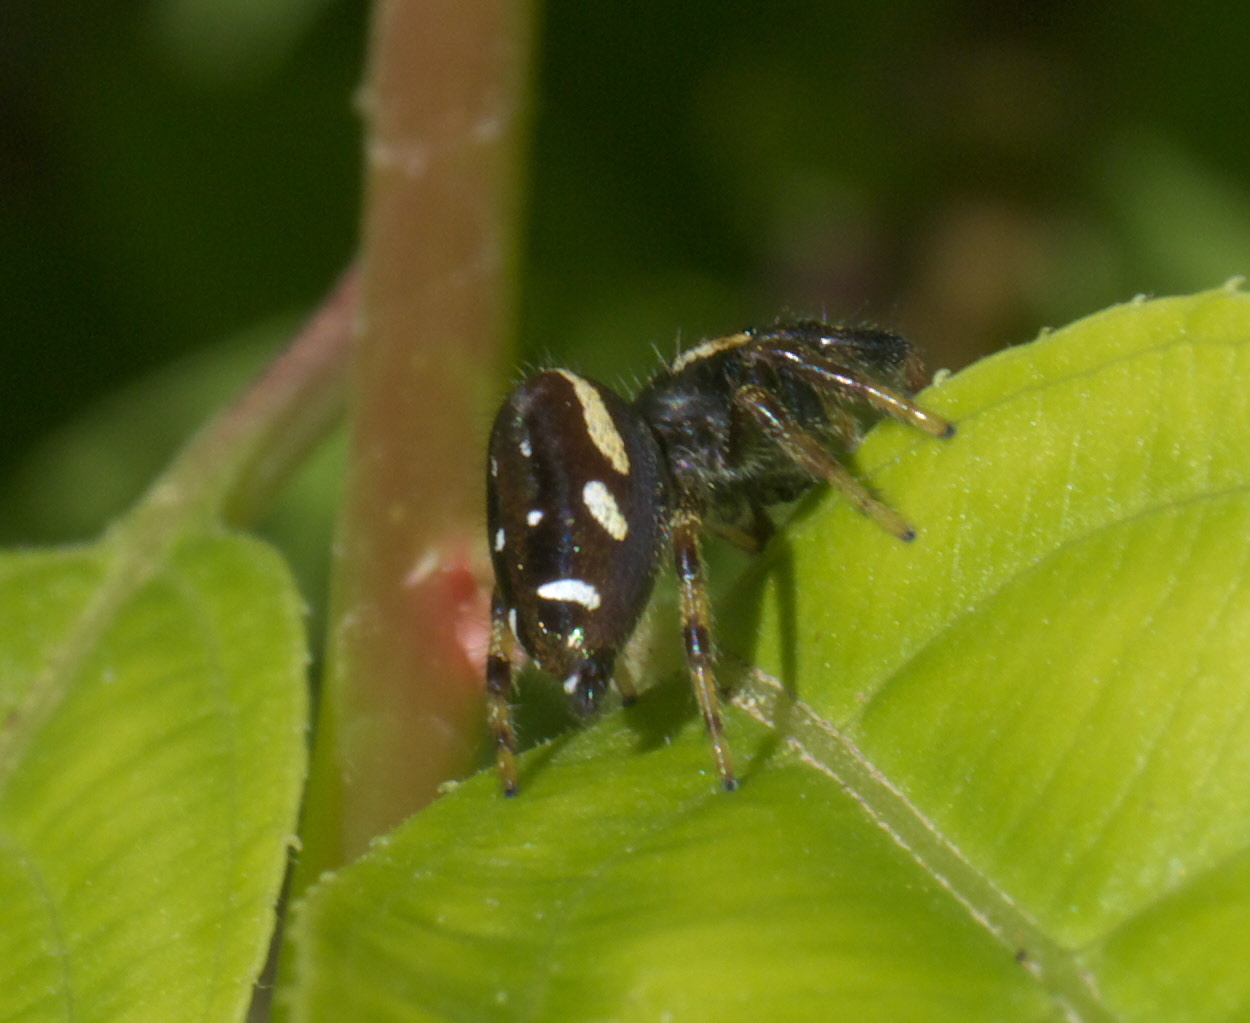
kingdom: Animalia
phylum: Arthropoda
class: Arachnida
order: Araneae
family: Salticidae
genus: Paraphidippus
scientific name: Paraphidippus aurantius
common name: Jumping spiders
